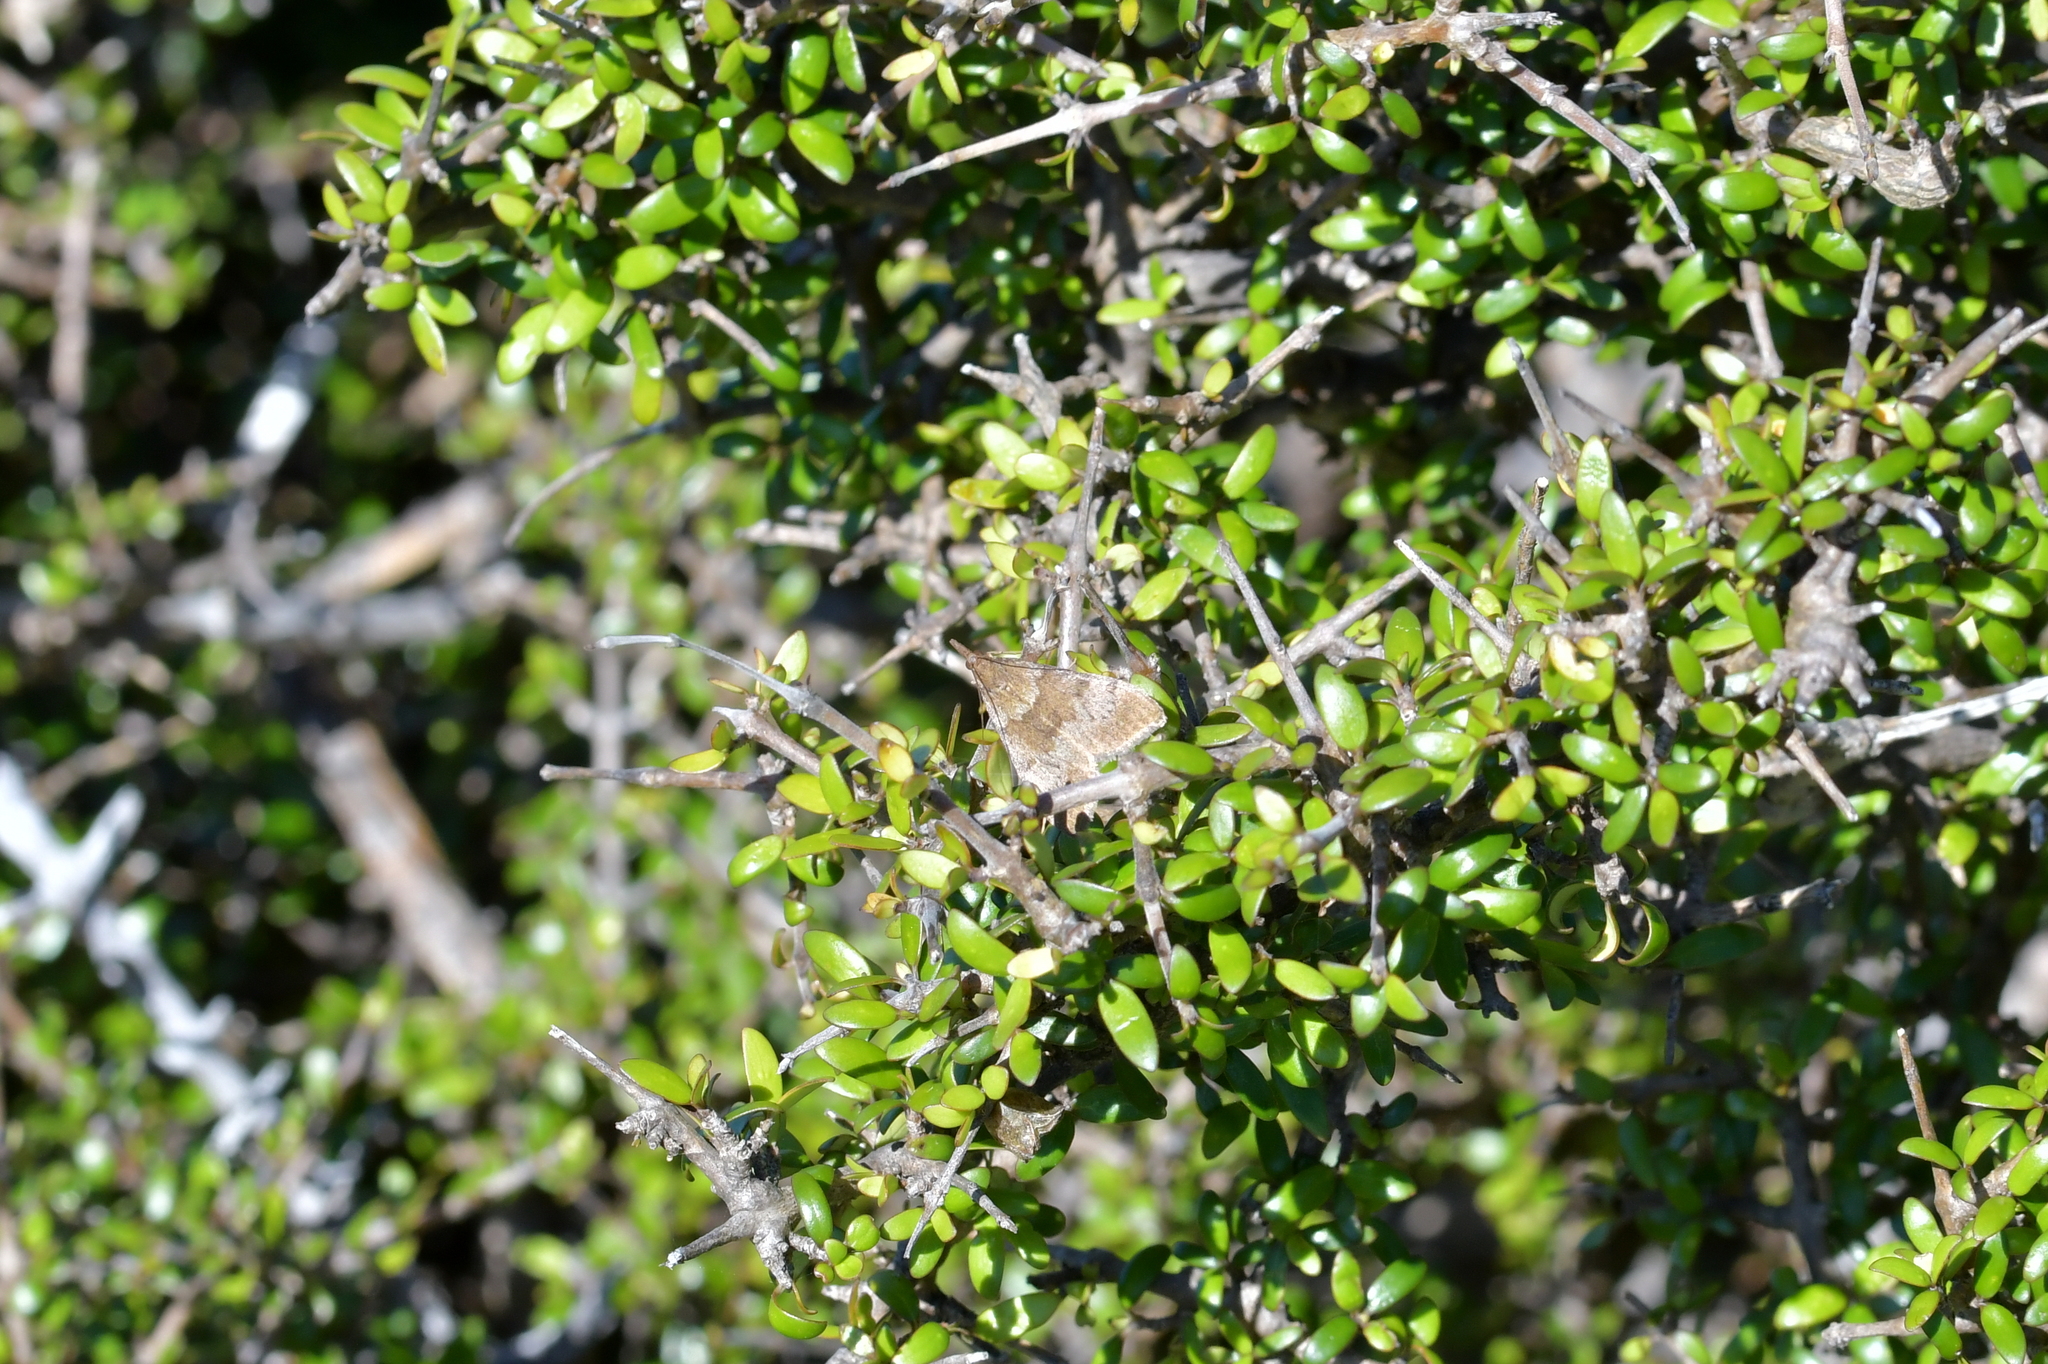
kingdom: Animalia
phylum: Arthropoda
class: Insecta
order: Lepidoptera
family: Crambidae
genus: Uresiphita
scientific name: Uresiphita
